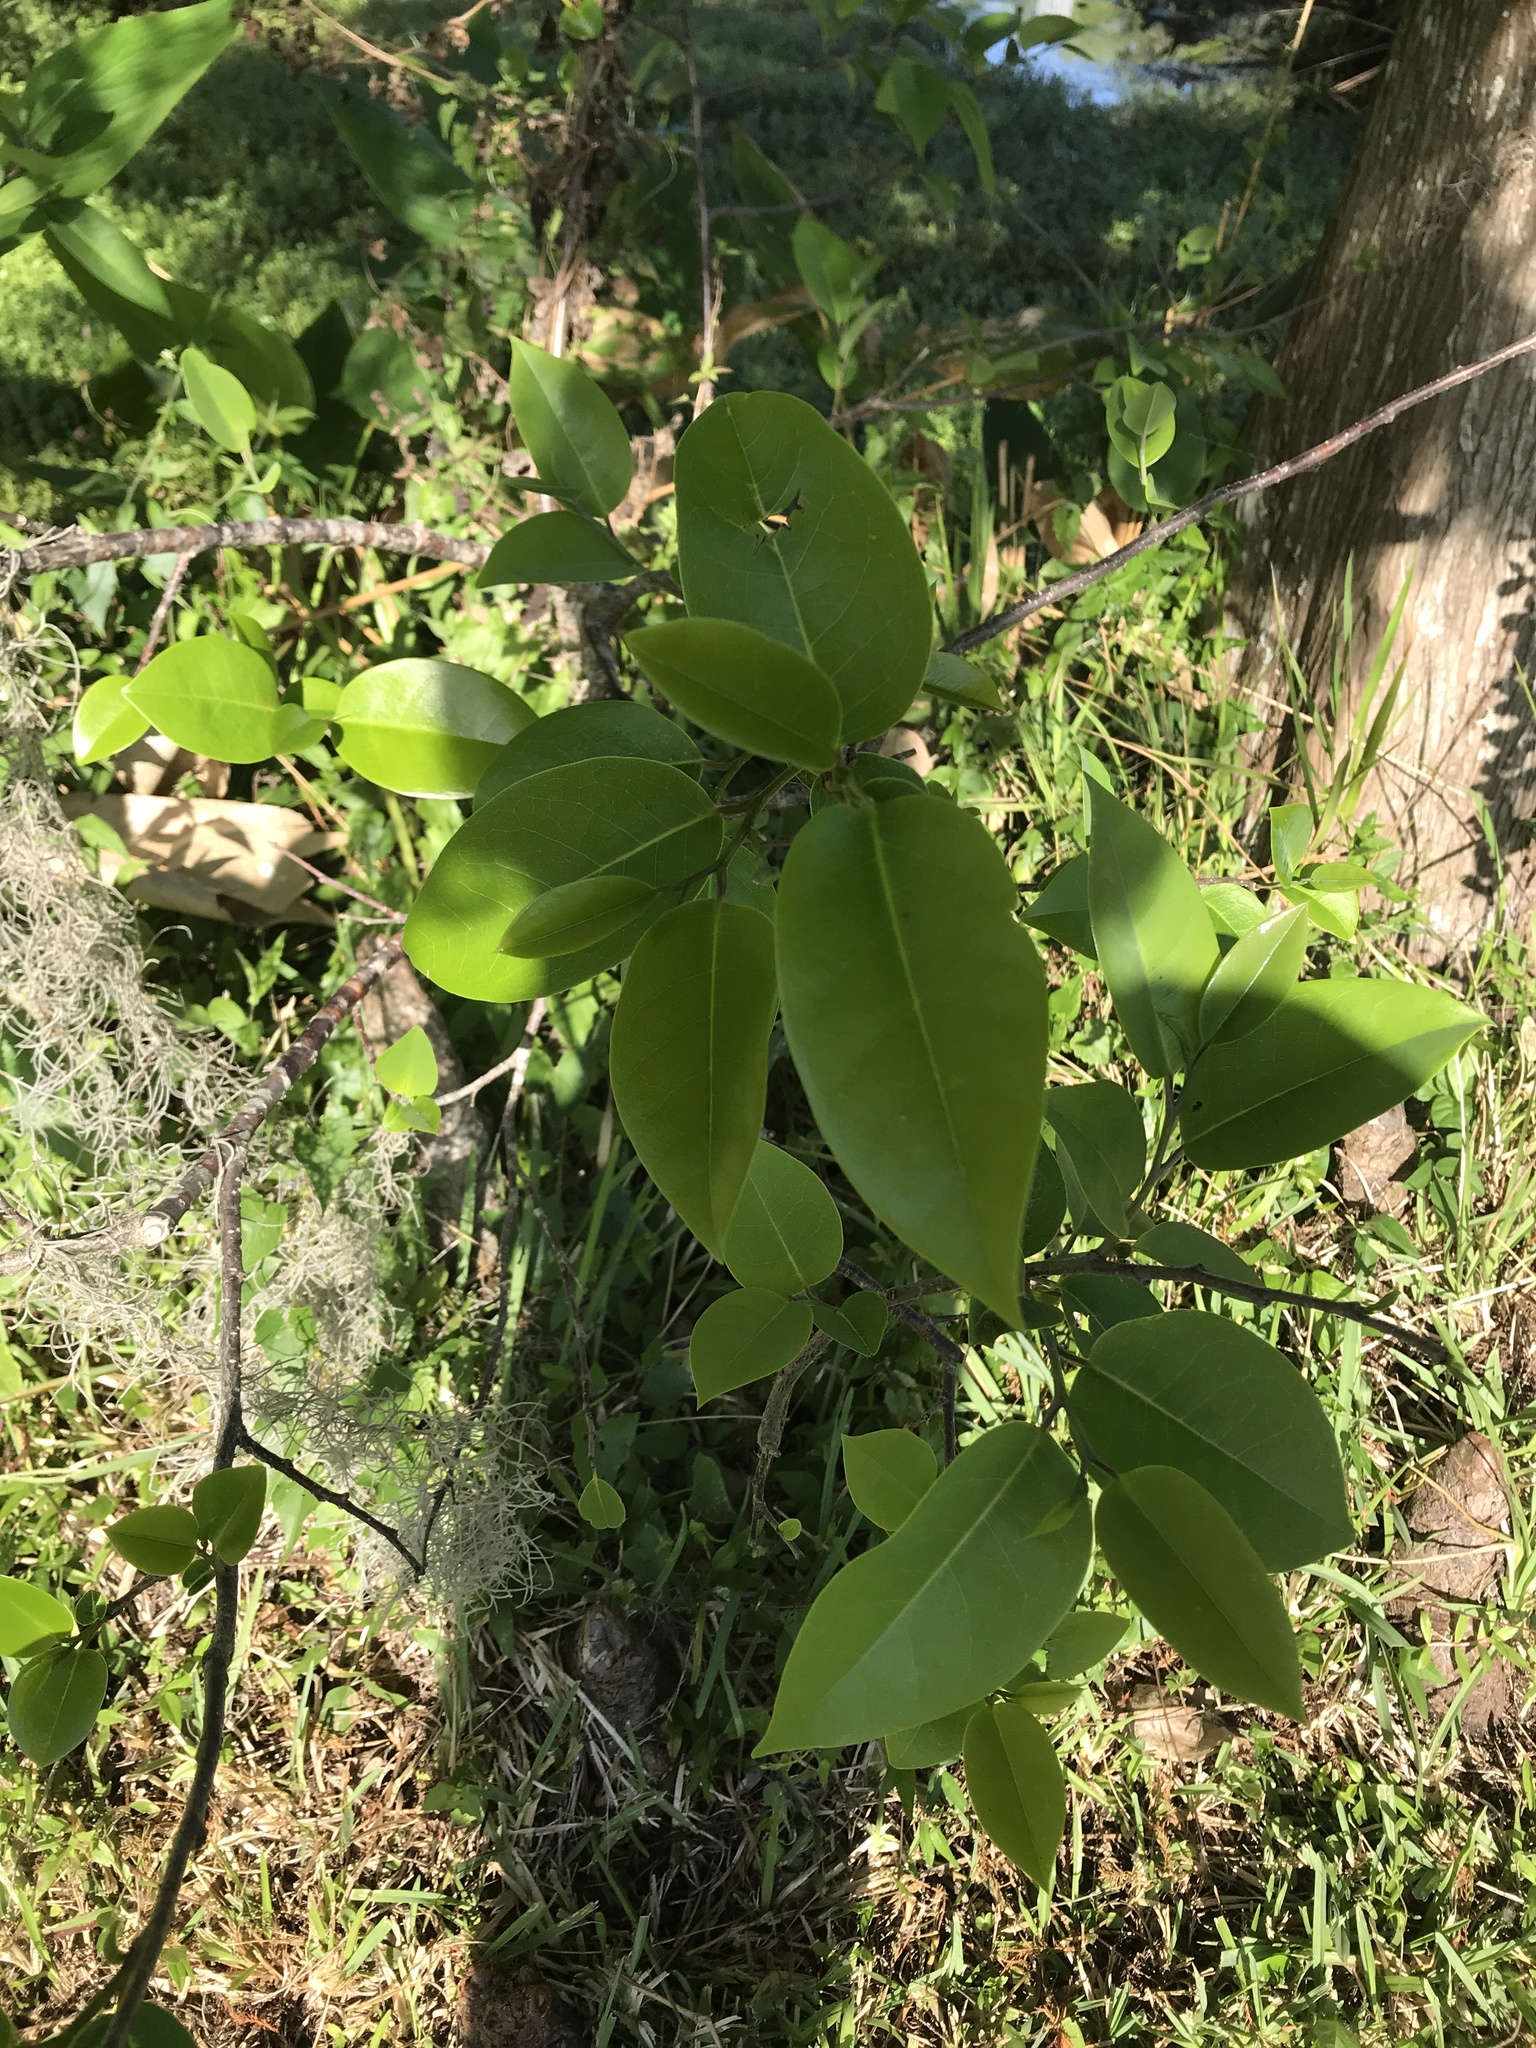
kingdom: Plantae
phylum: Tracheophyta
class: Magnoliopsida
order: Magnoliales
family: Annonaceae
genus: Annona
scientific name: Annona glabra
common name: Monkey apple
